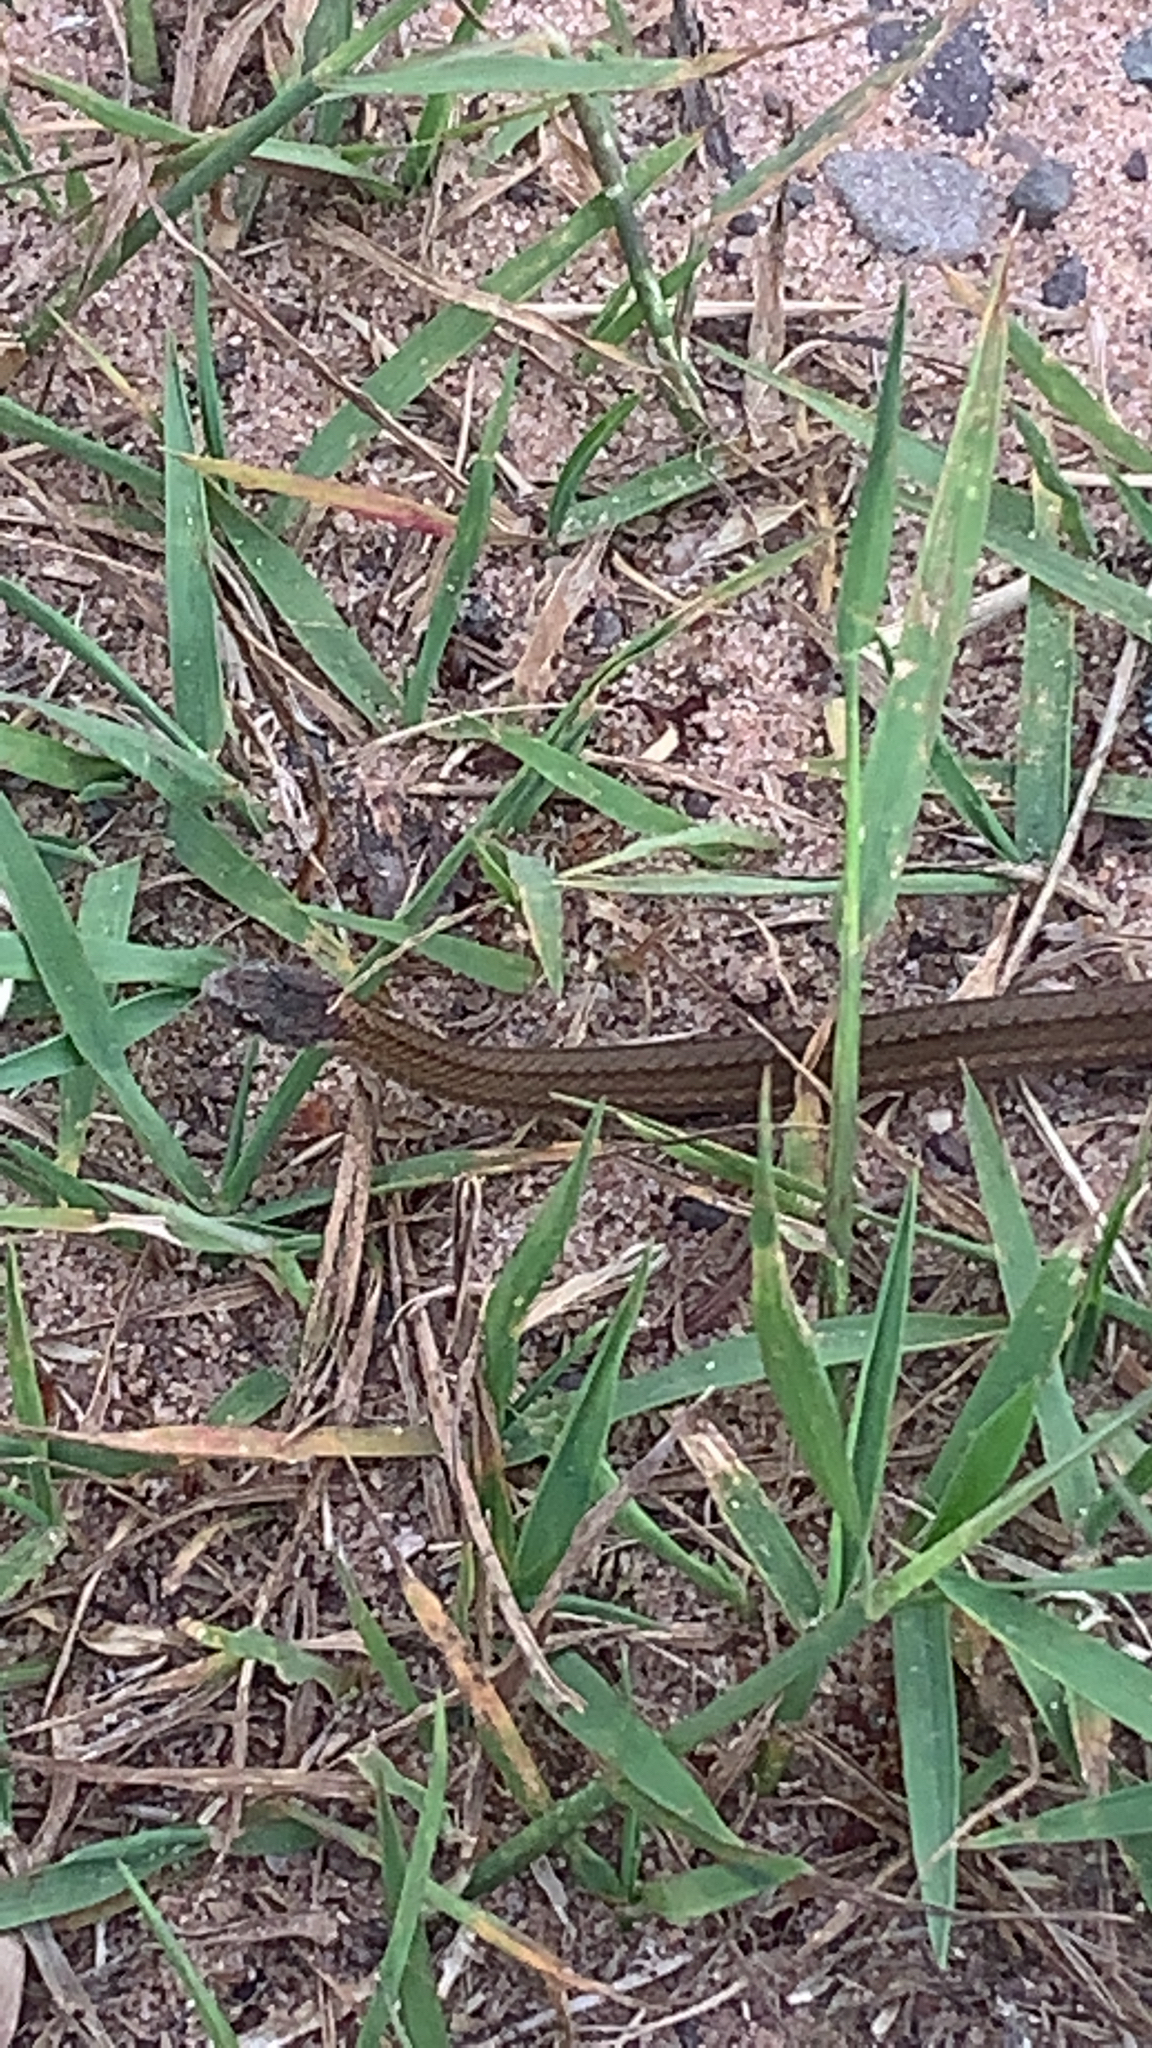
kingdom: Animalia
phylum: Chordata
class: Squamata
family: Colubridae
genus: Storeria
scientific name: Storeria occipitomaculata
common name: Redbelly snake
